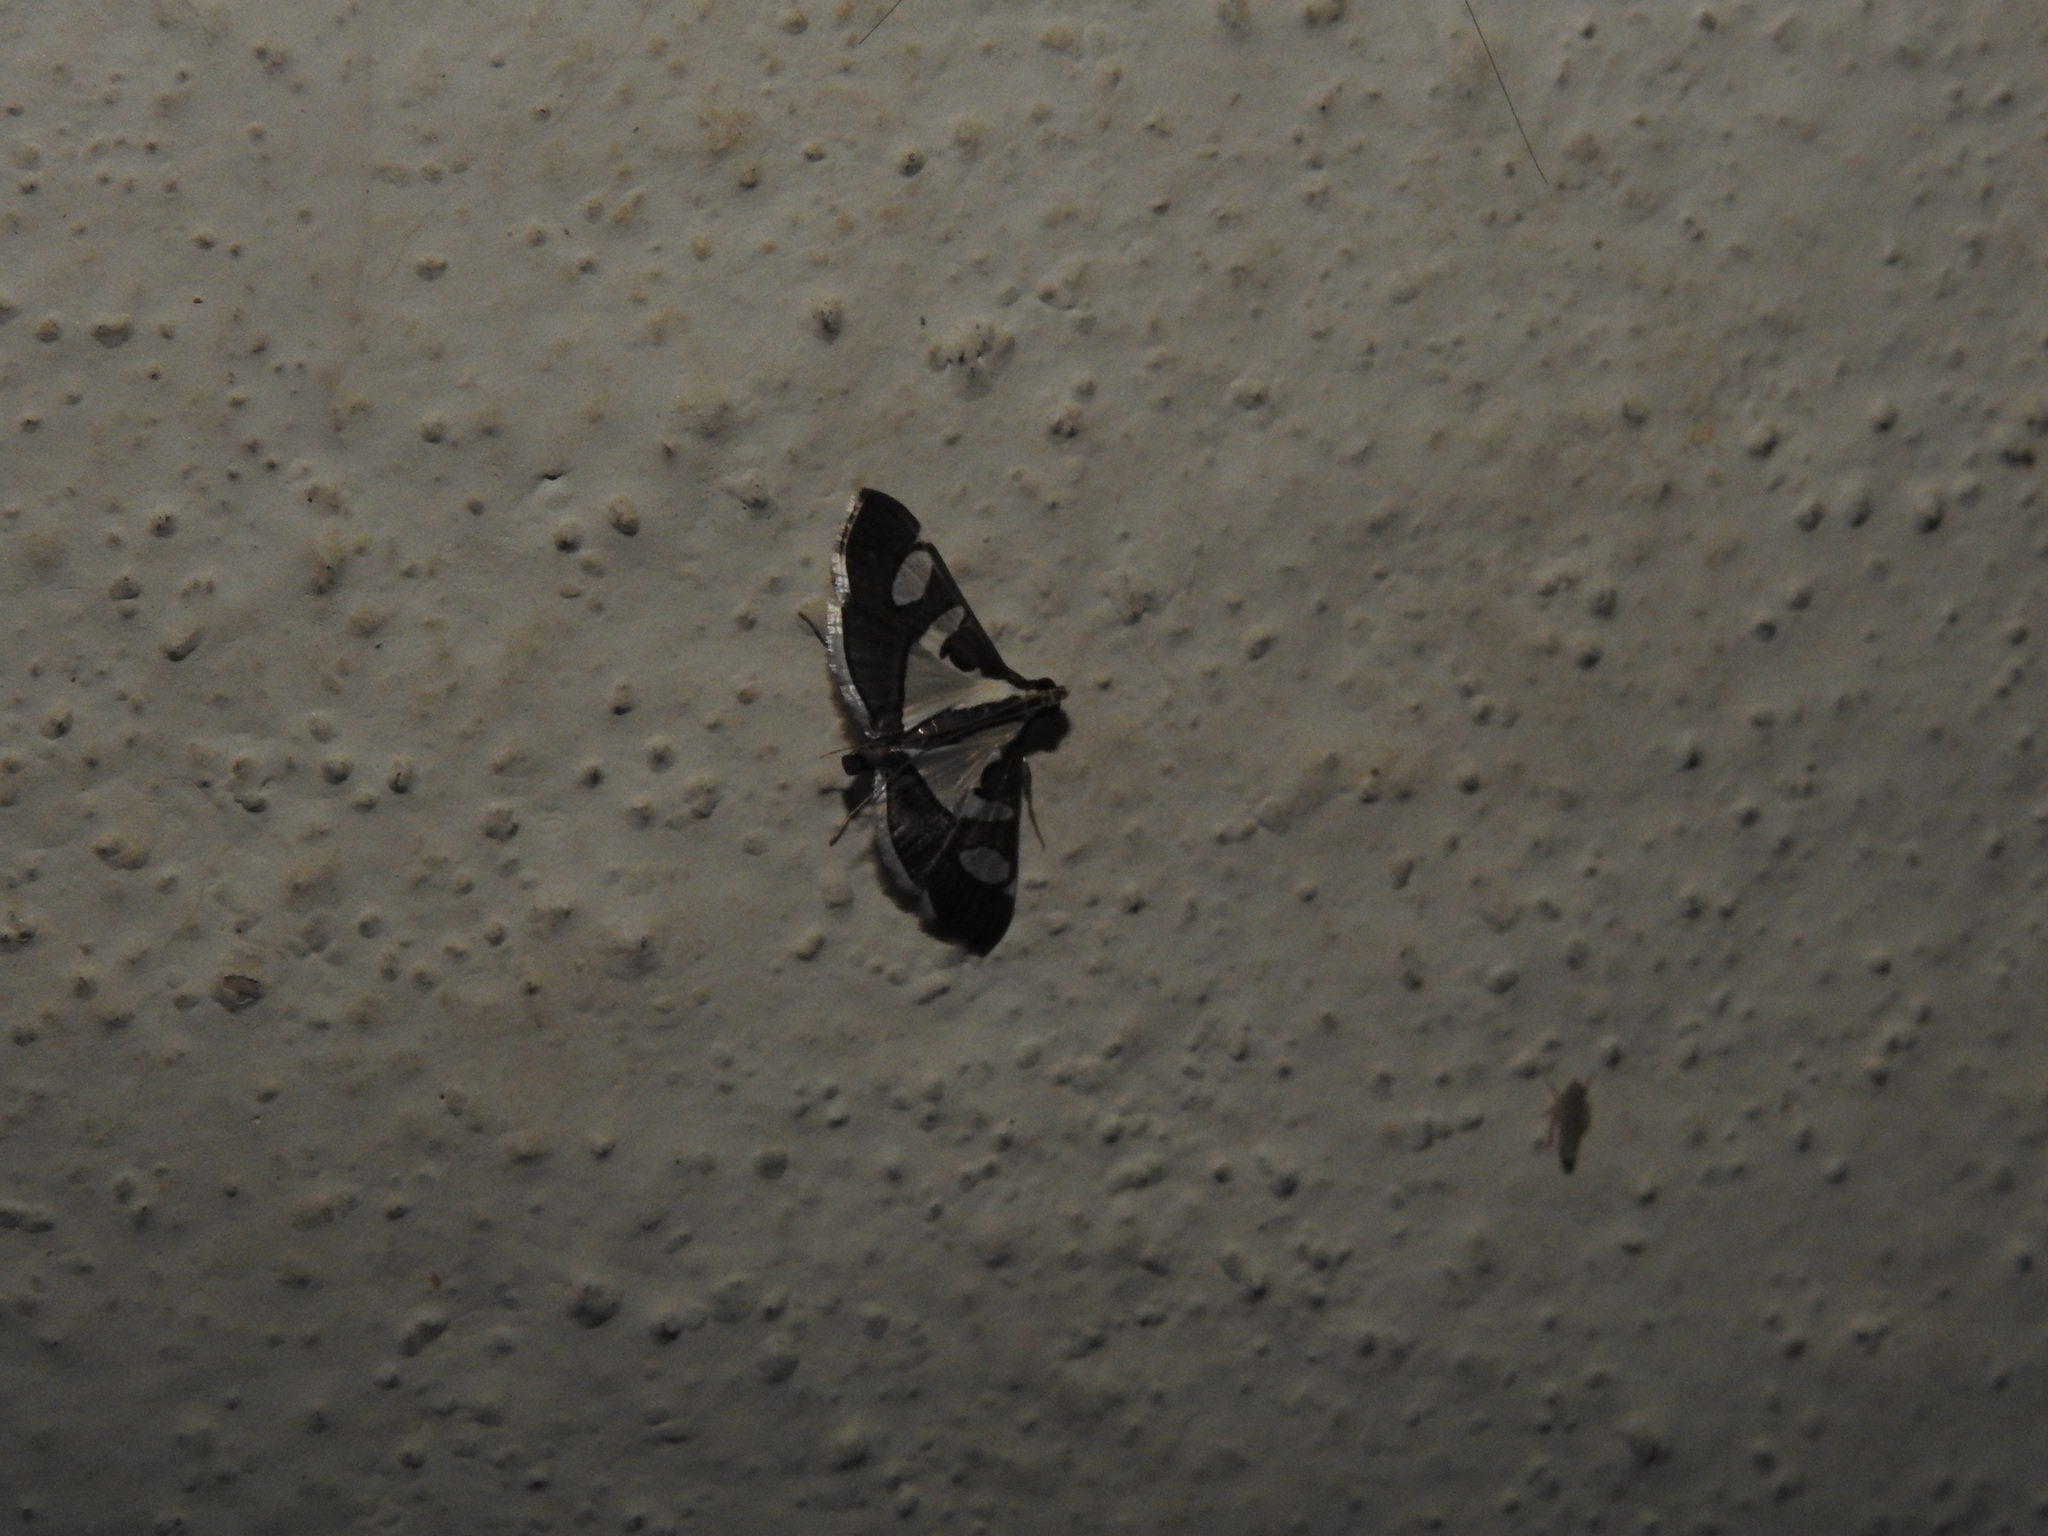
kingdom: Animalia
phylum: Arthropoda
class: Insecta
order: Lepidoptera
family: Crambidae
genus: Glyphodes
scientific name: Glyphodes bicolor
